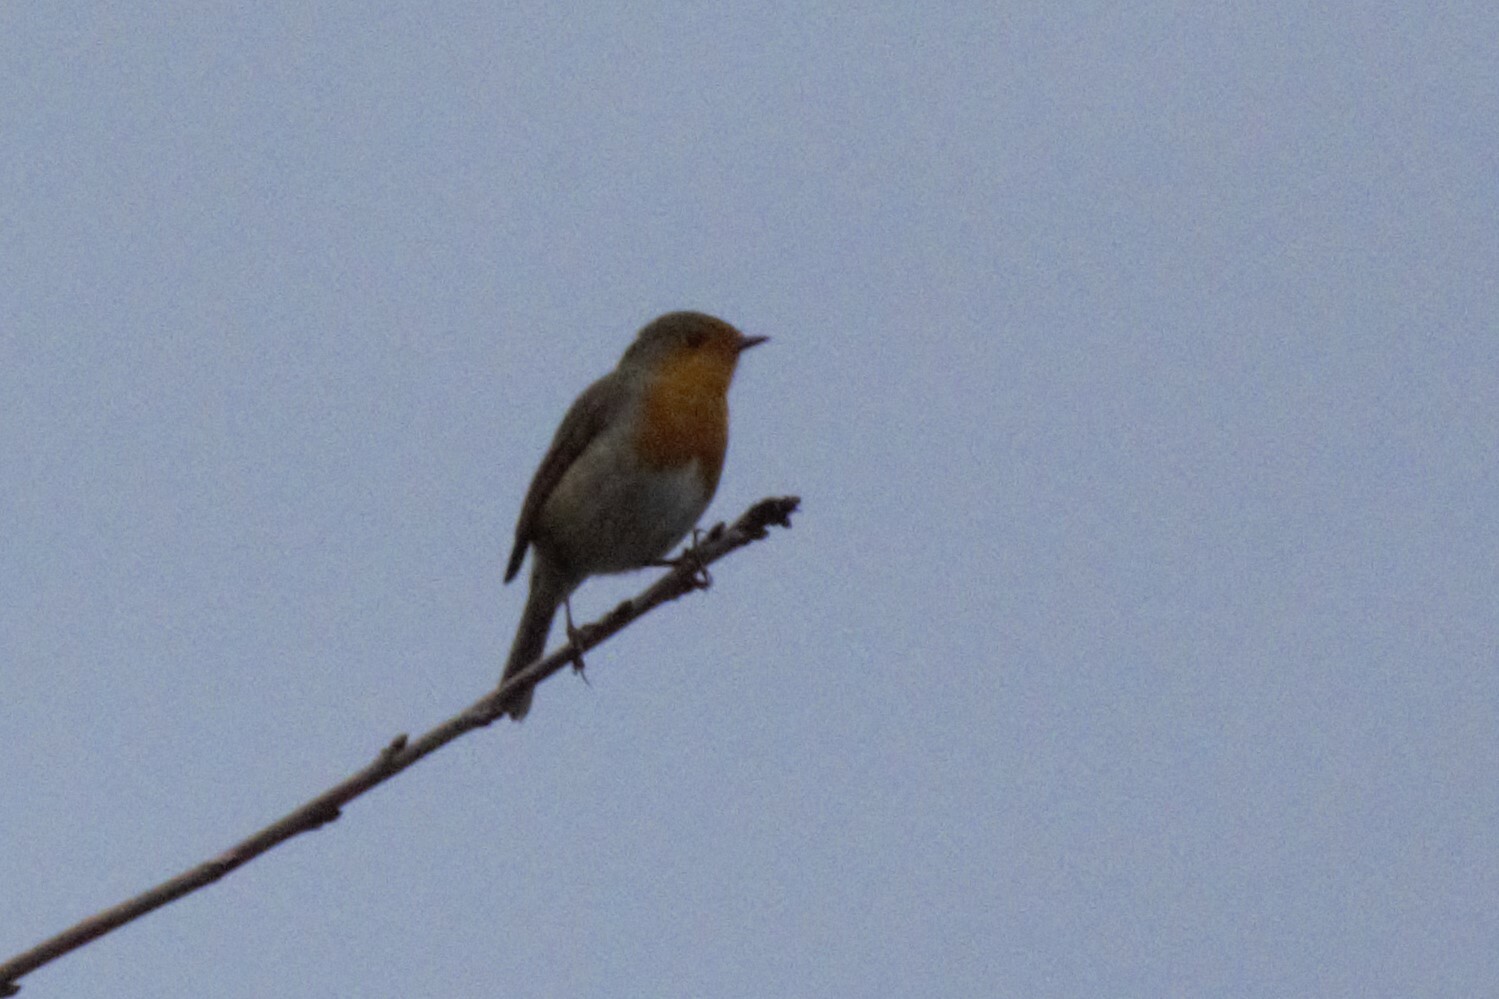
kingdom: Animalia
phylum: Chordata
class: Aves
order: Passeriformes
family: Muscicapidae
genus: Erithacus
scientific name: Erithacus rubecula
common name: European robin
